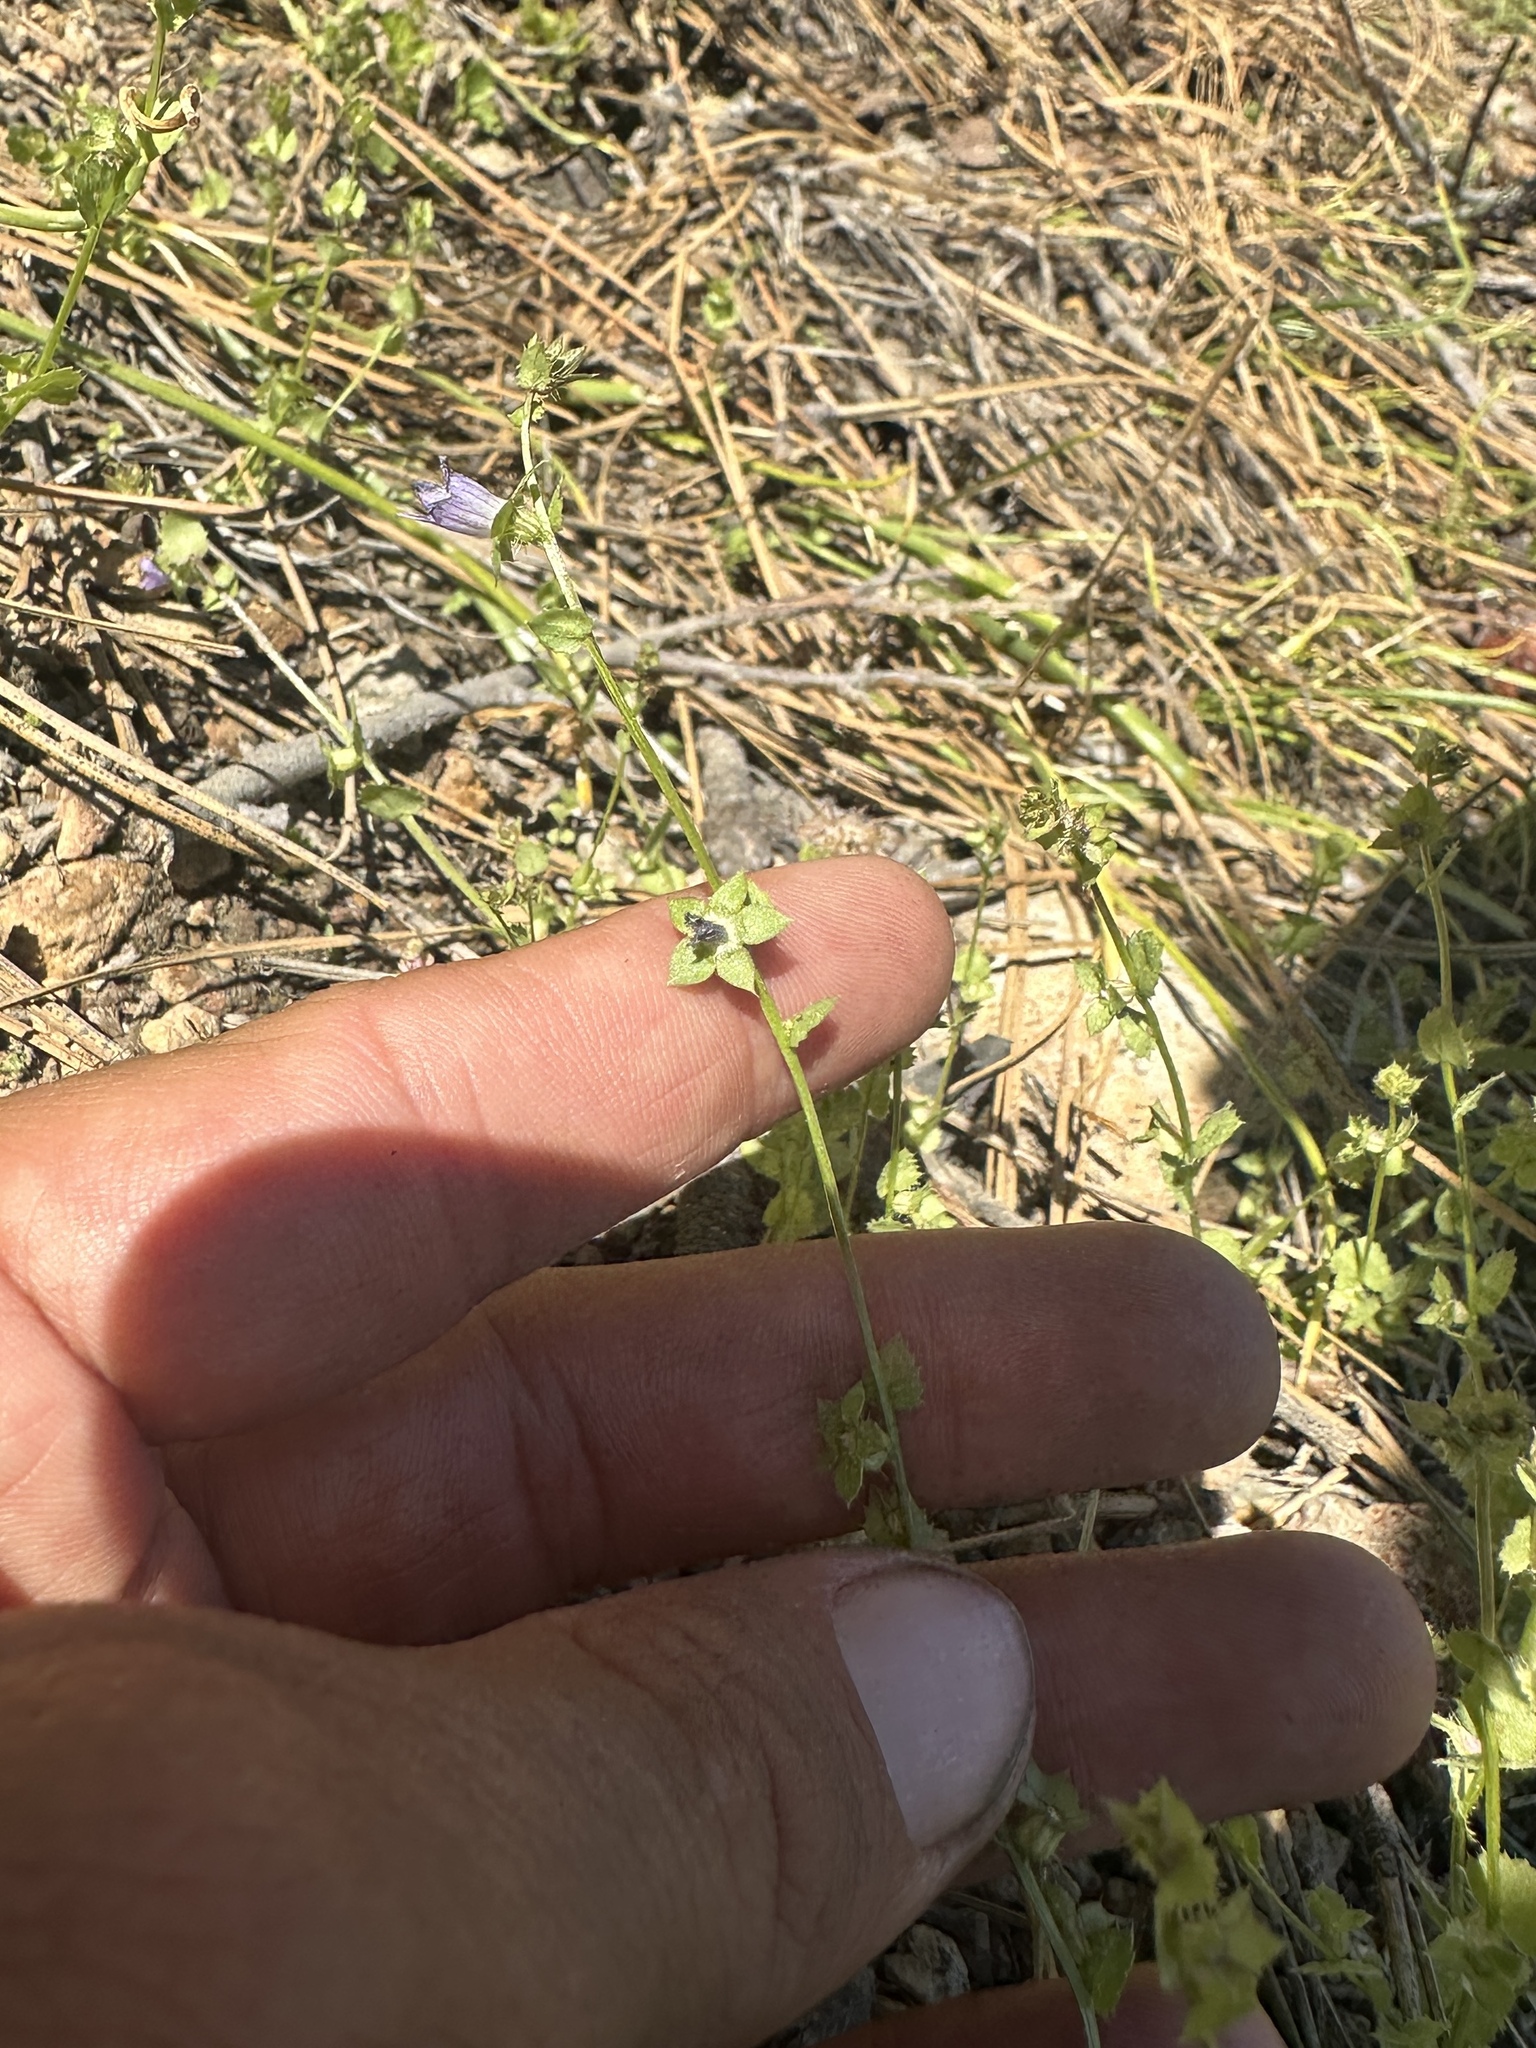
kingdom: Plantae
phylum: Tracheophyta
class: Magnoliopsida
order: Asterales
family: Campanulaceae
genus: Heterocodon
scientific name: Heterocodon rariflorum
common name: Rareflower heterocodon
